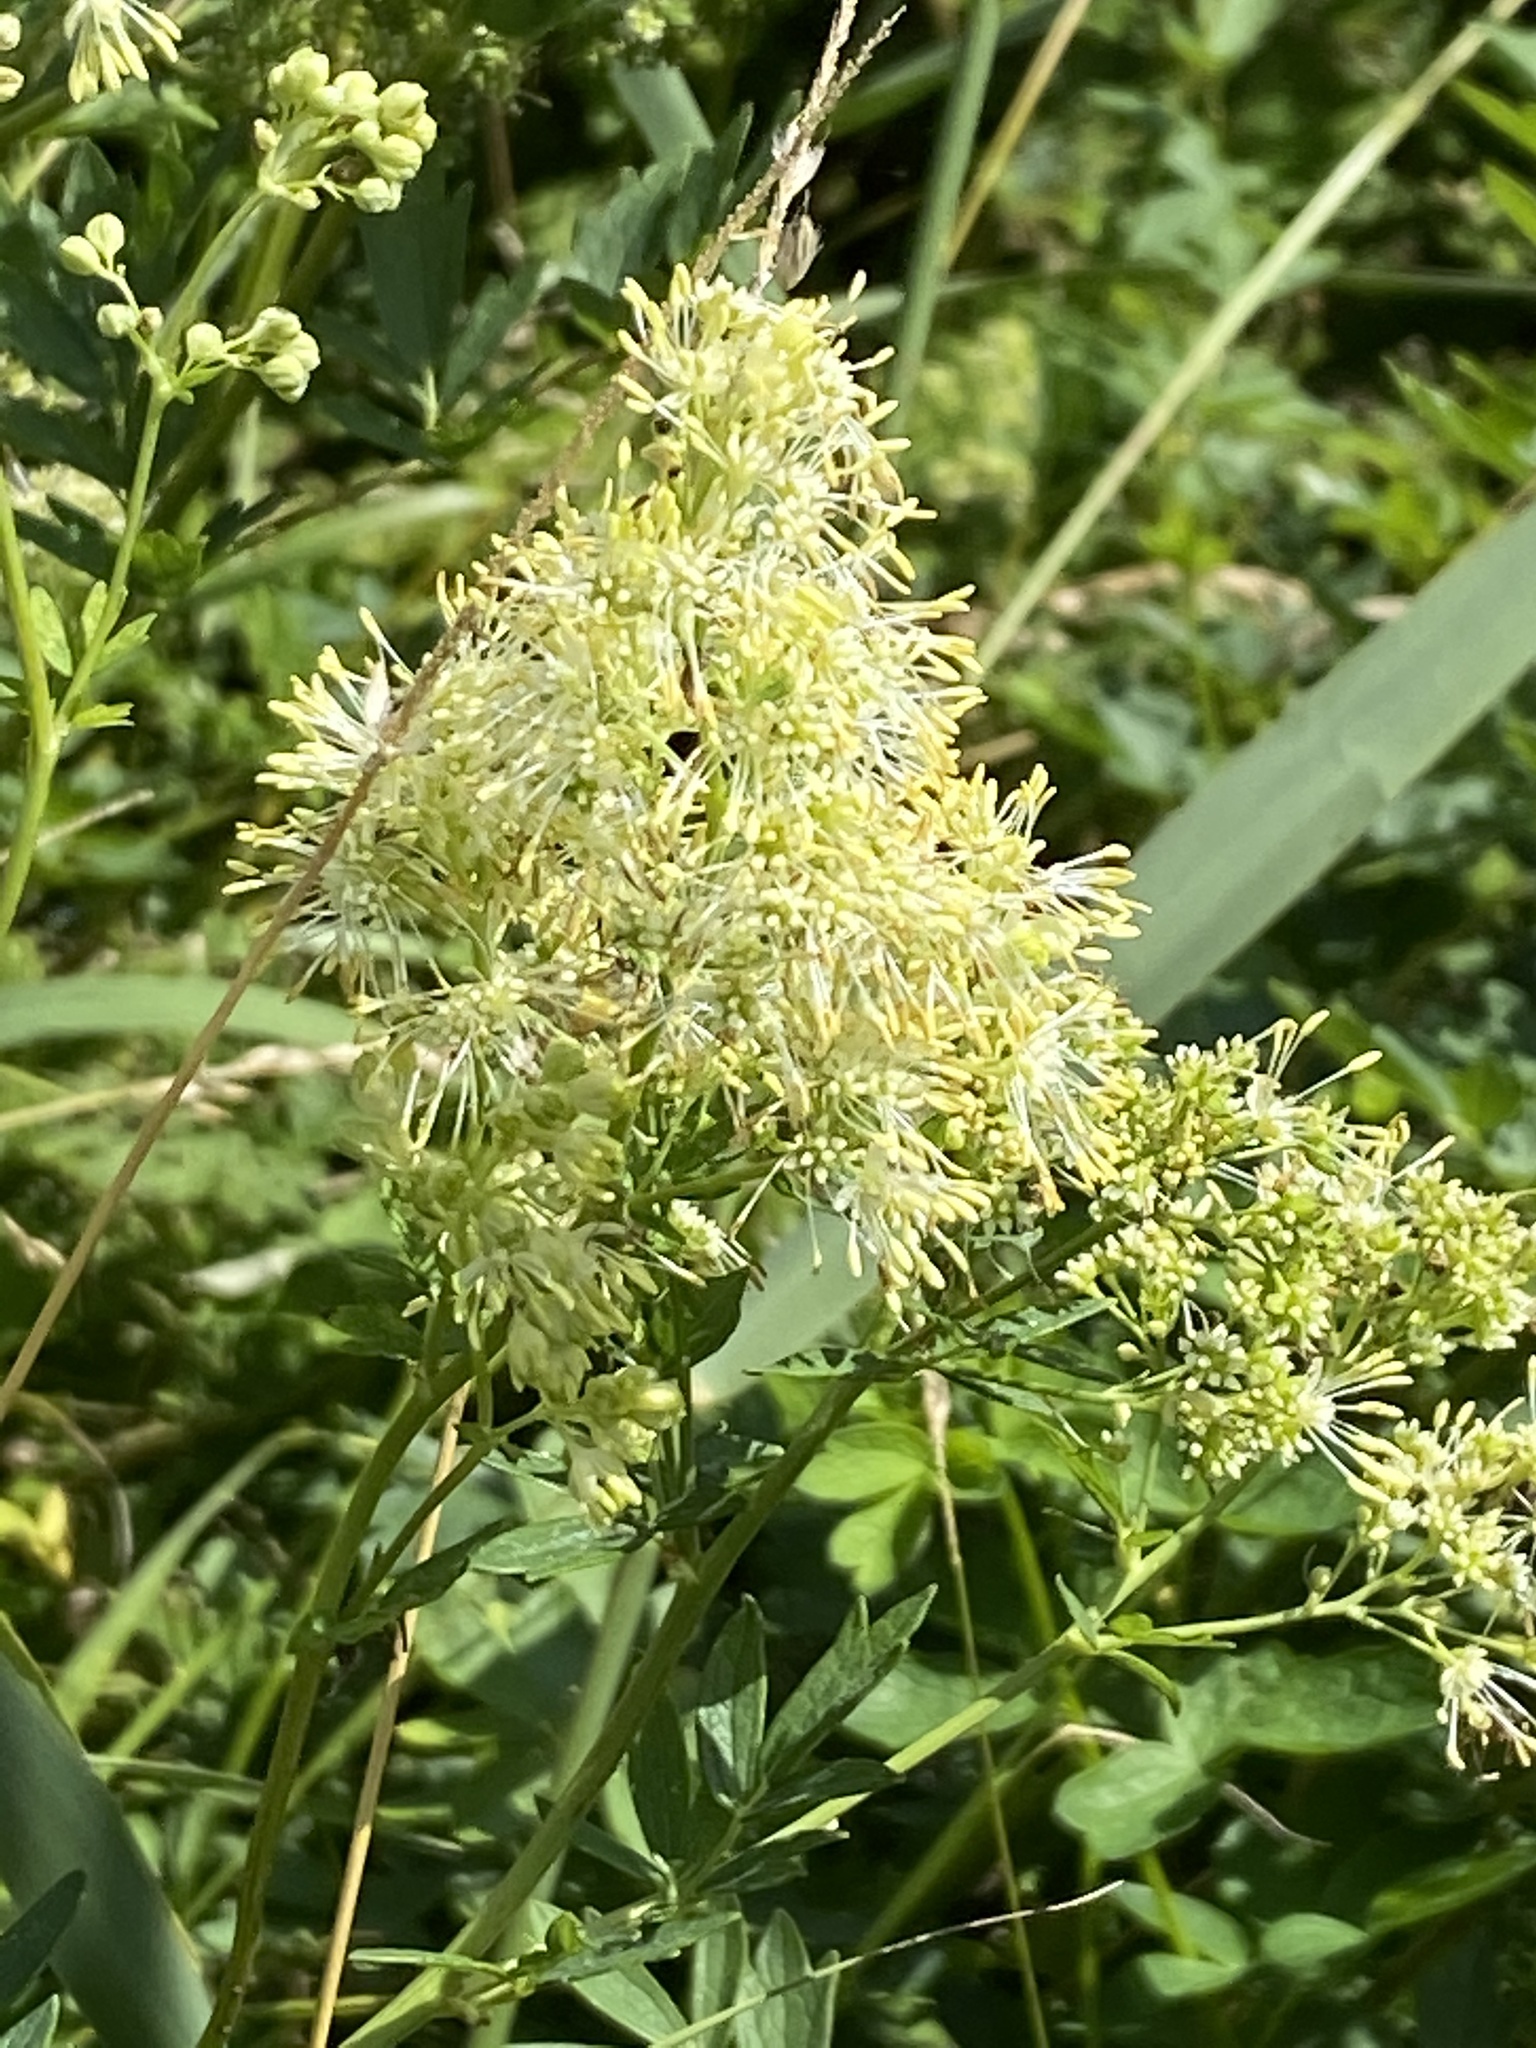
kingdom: Plantae
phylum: Tracheophyta
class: Magnoliopsida
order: Ranunculales
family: Ranunculaceae
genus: Thalictrum
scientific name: Thalictrum flavum
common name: Common meadow-rue
